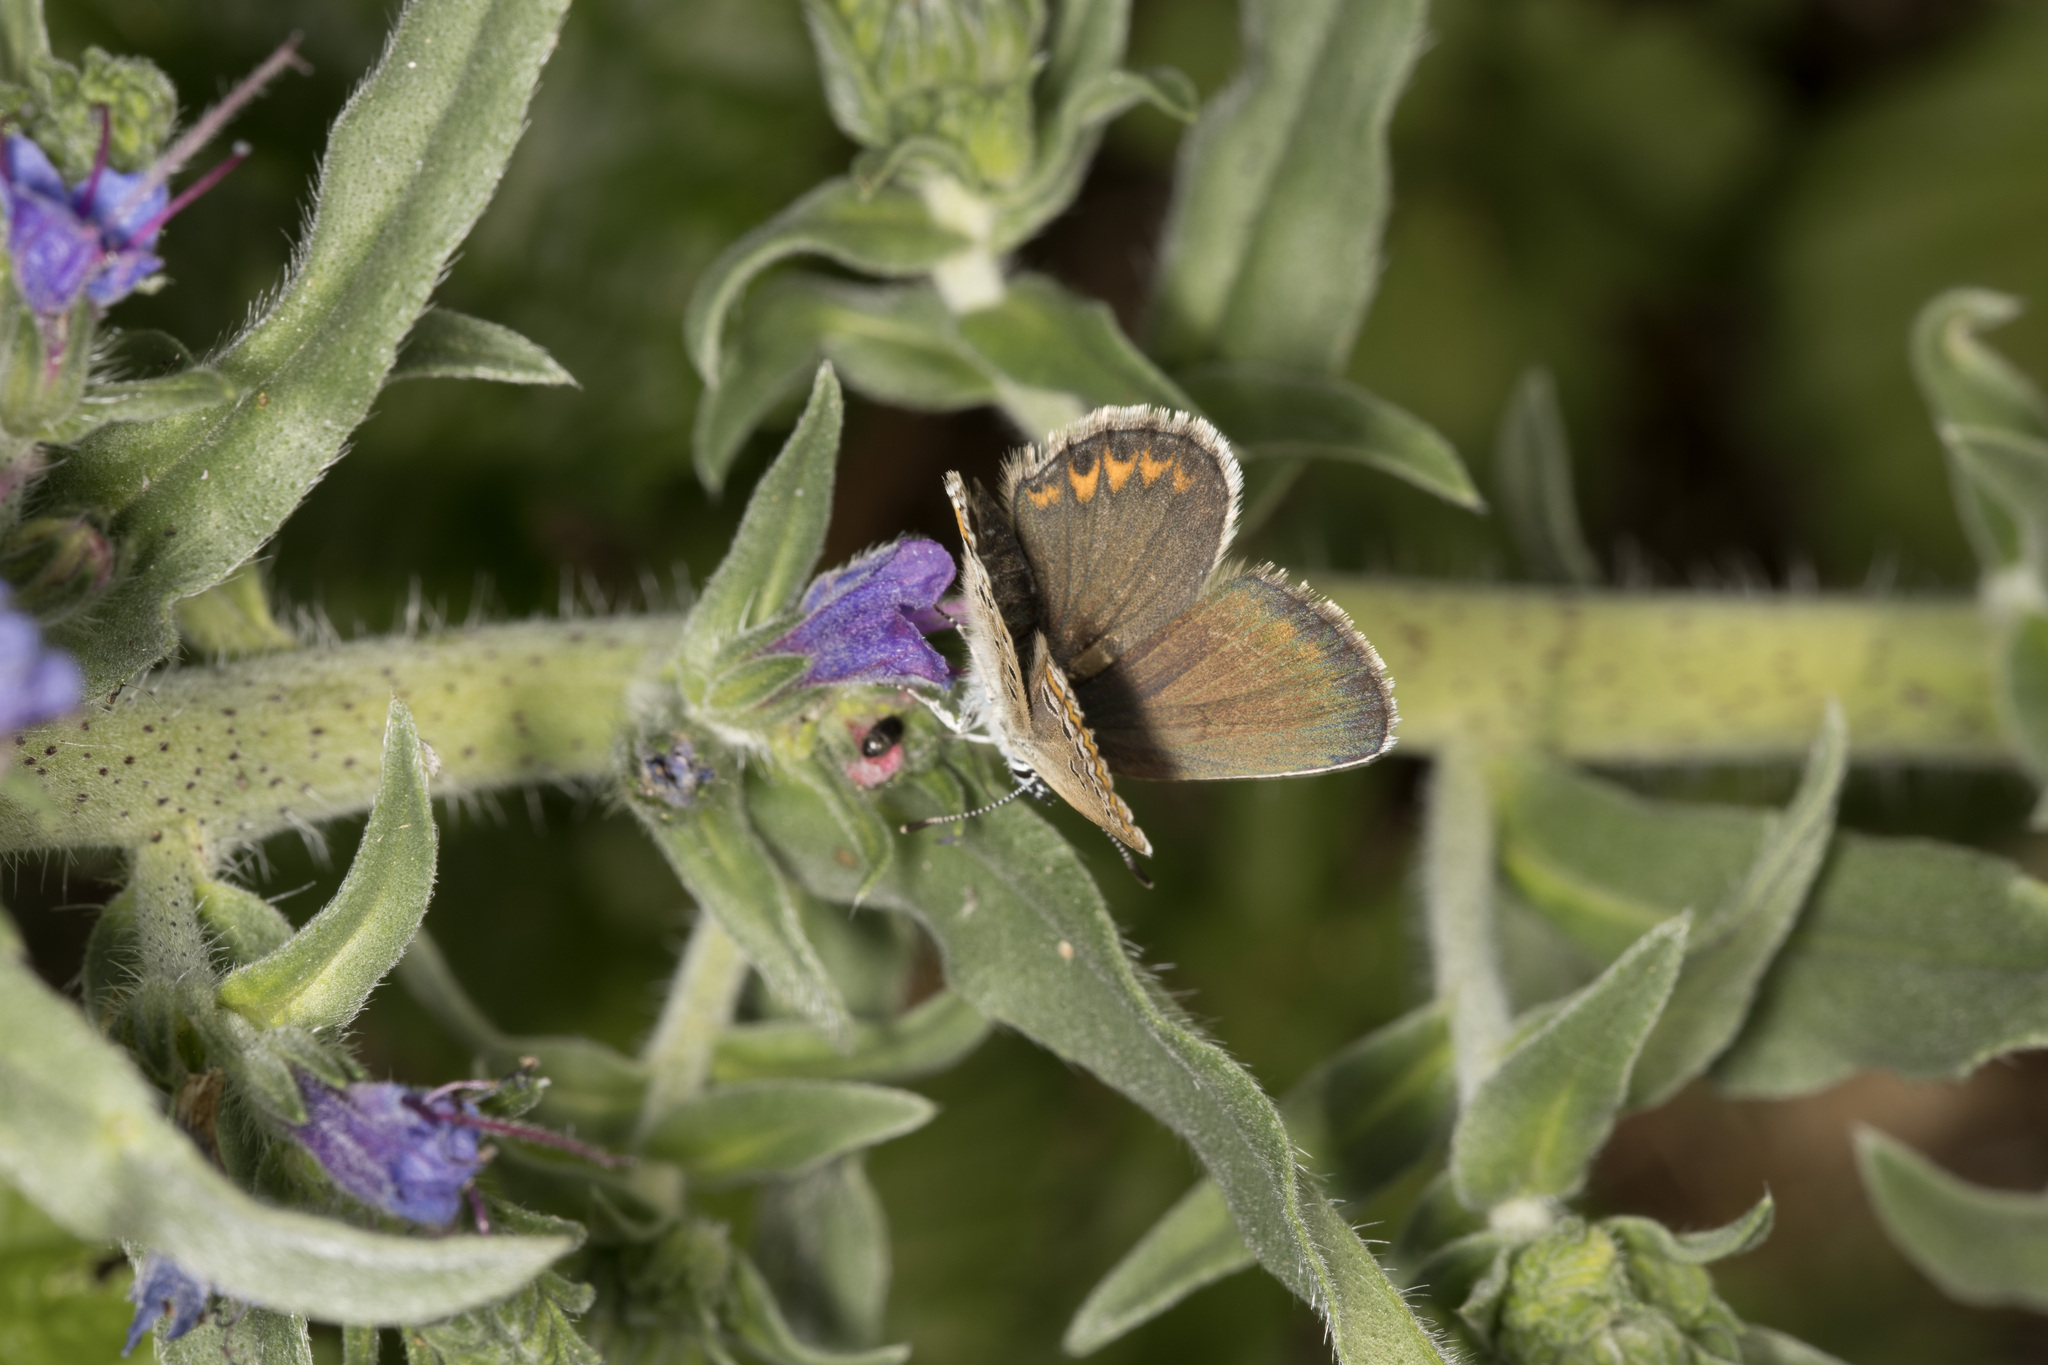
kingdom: Animalia
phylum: Arthropoda
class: Insecta
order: Lepidoptera
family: Lycaenidae
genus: Plebejus
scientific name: Plebejus argus
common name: Silver-studded blue
